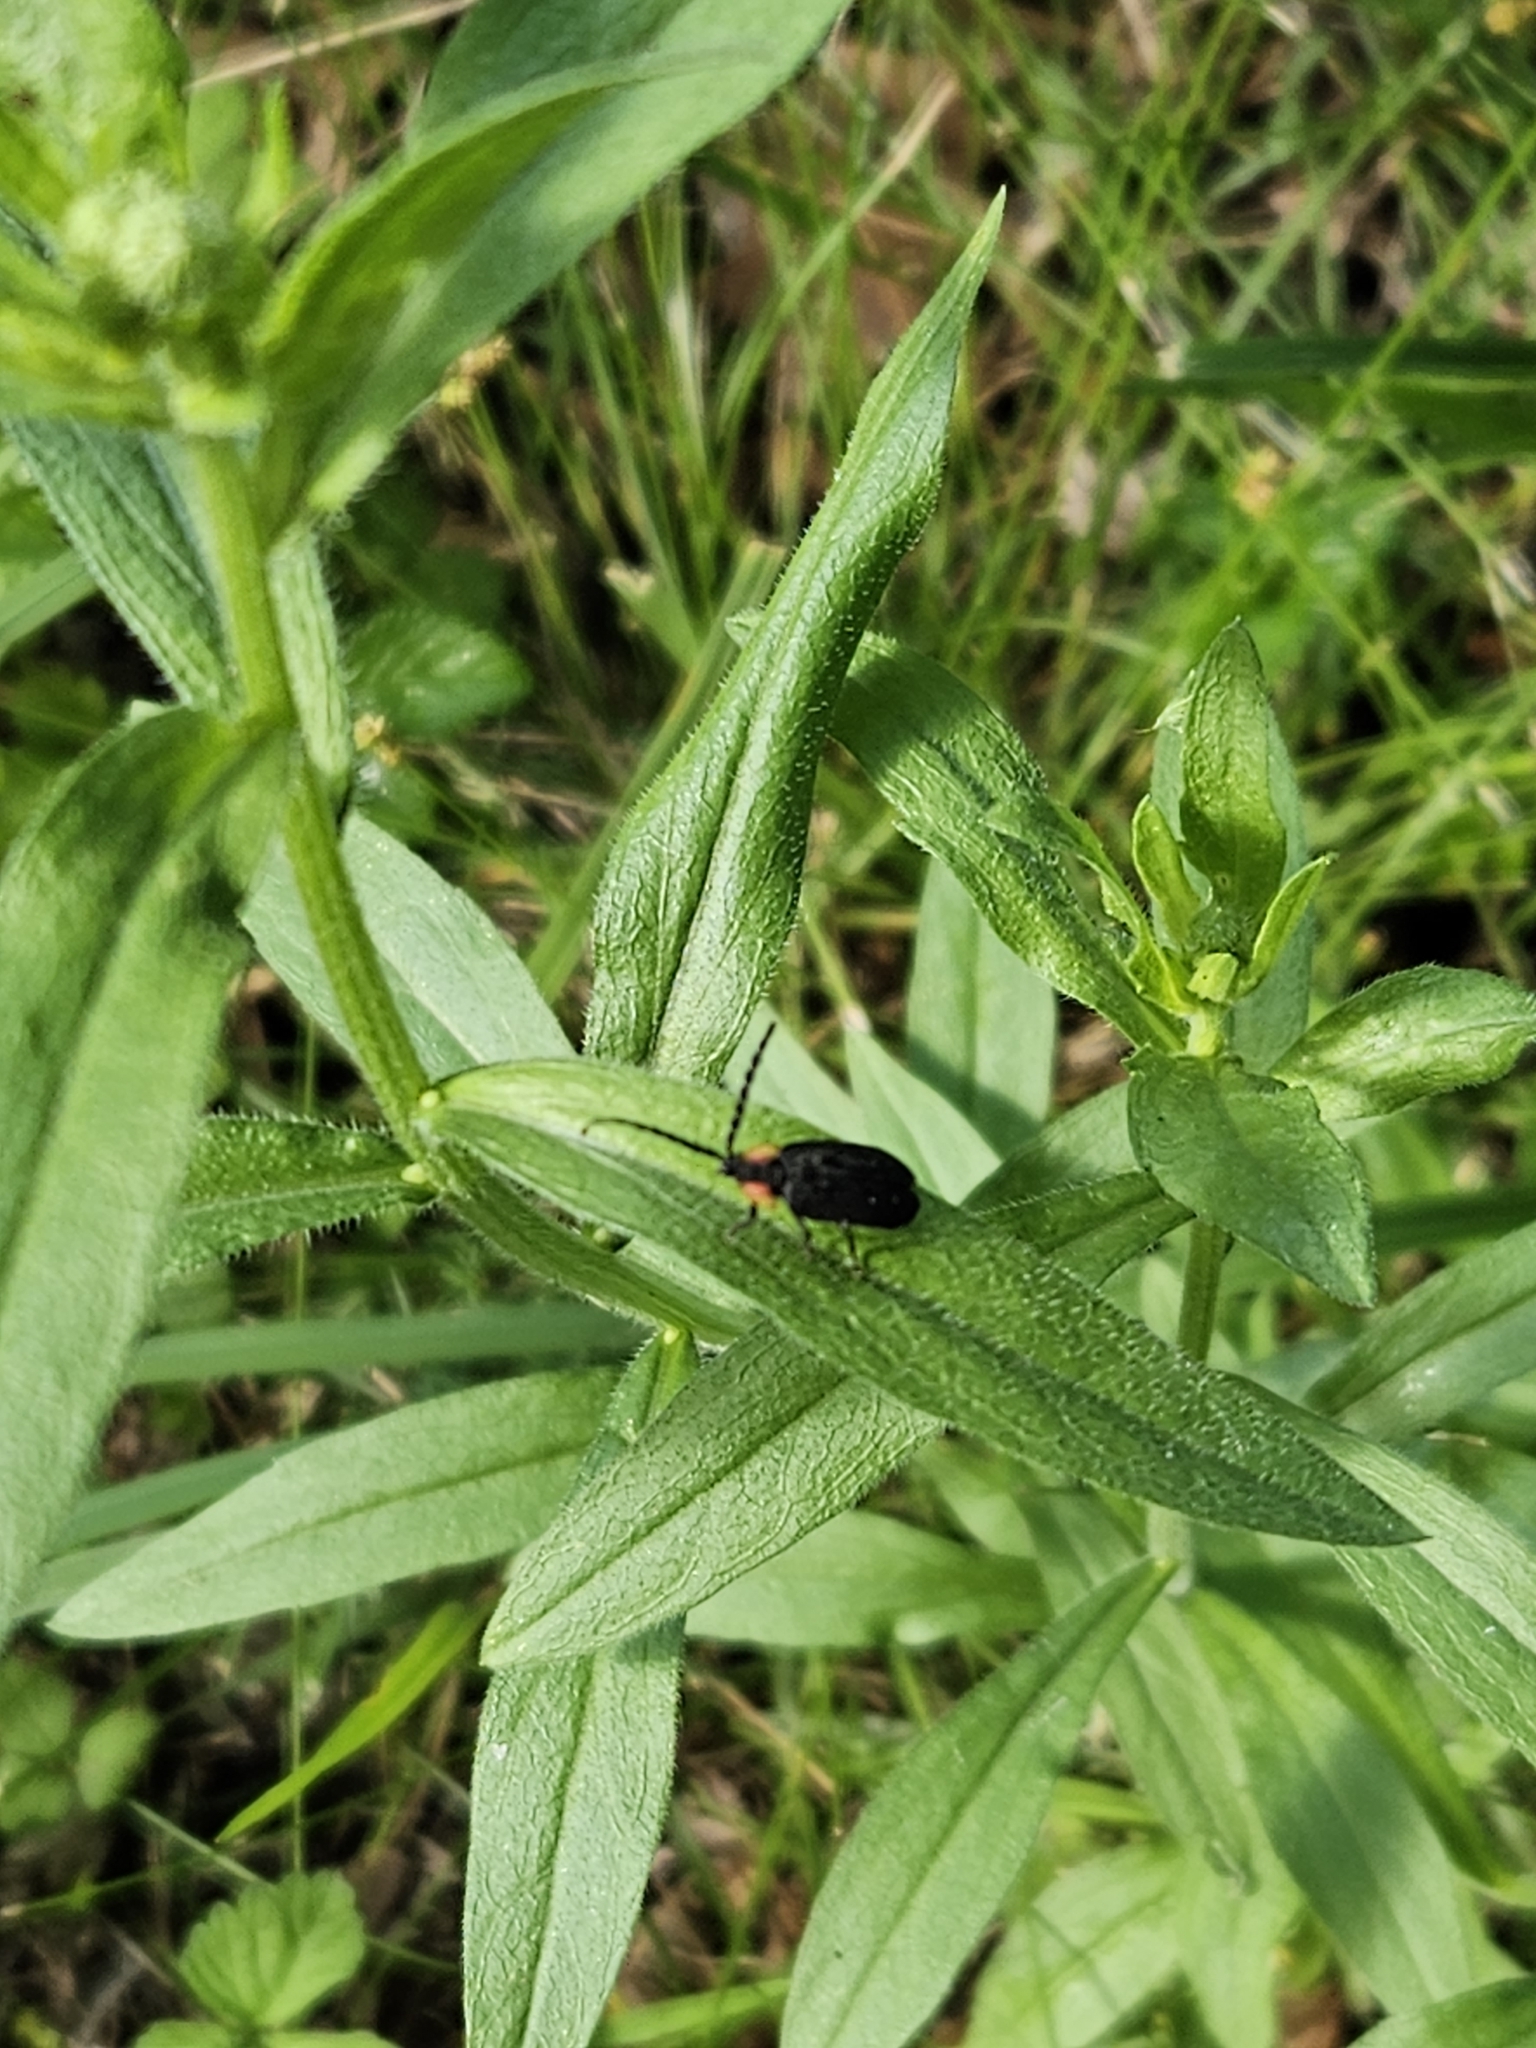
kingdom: Animalia
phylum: Arthropoda
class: Insecta
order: Coleoptera
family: Lampyridae
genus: Lucidota
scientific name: Lucidota atra
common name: Black firefly
